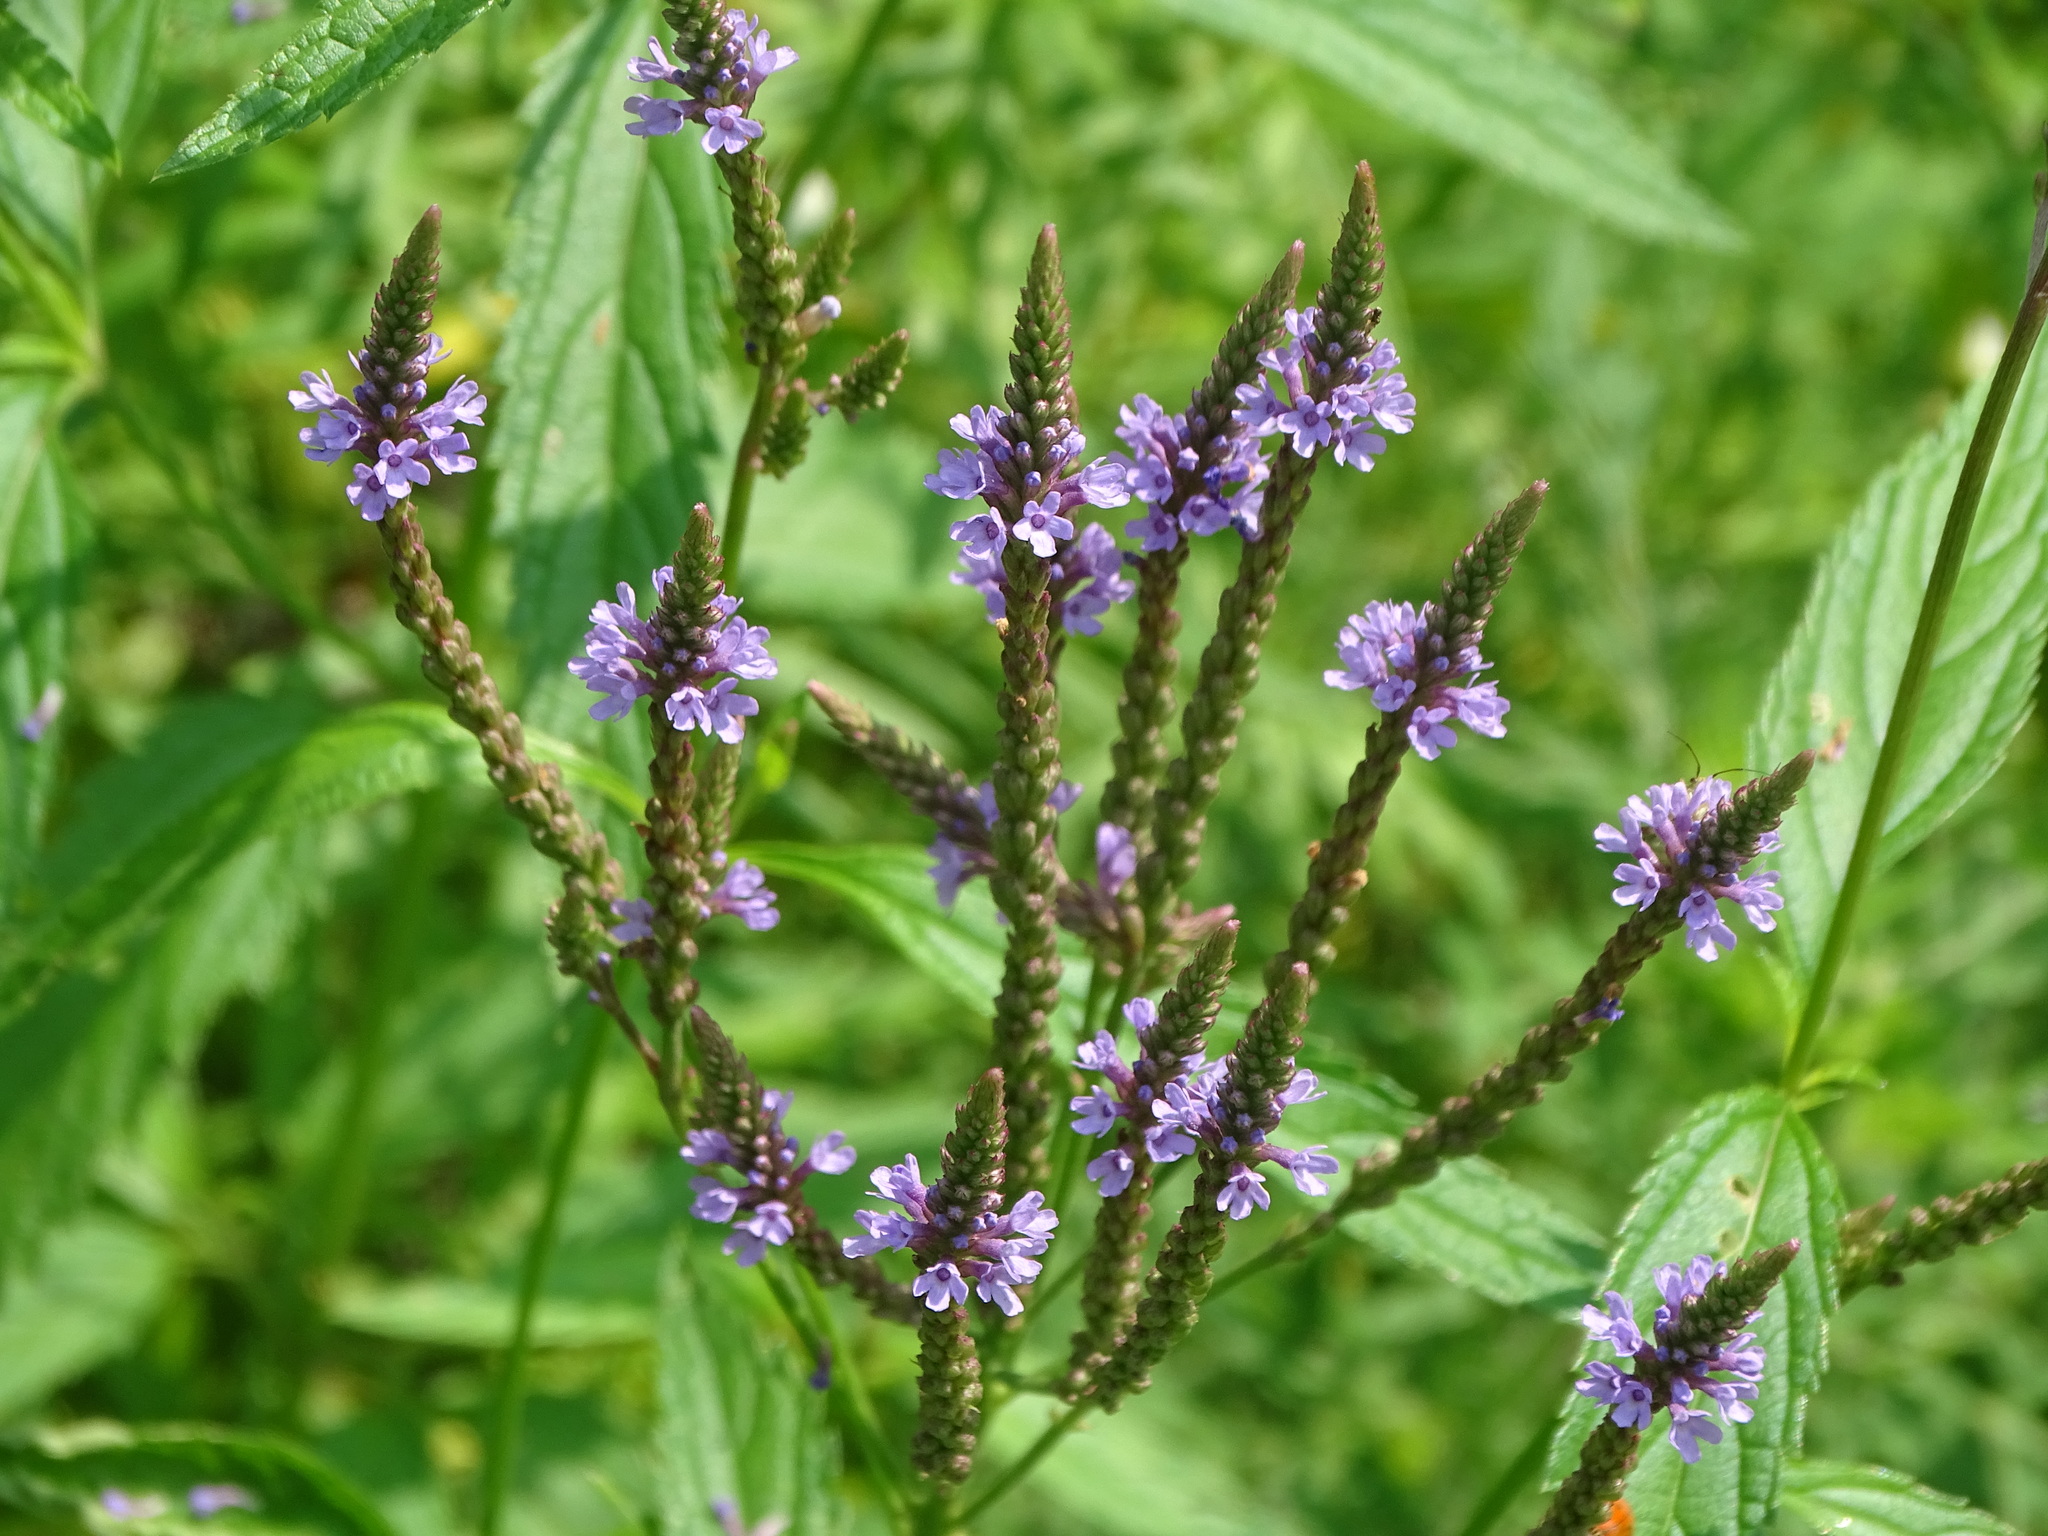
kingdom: Plantae
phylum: Tracheophyta
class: Magnoliopsida
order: Lamiales
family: Verbenaceae
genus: Verbena
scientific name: Verbena hastata
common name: American blue vervain
